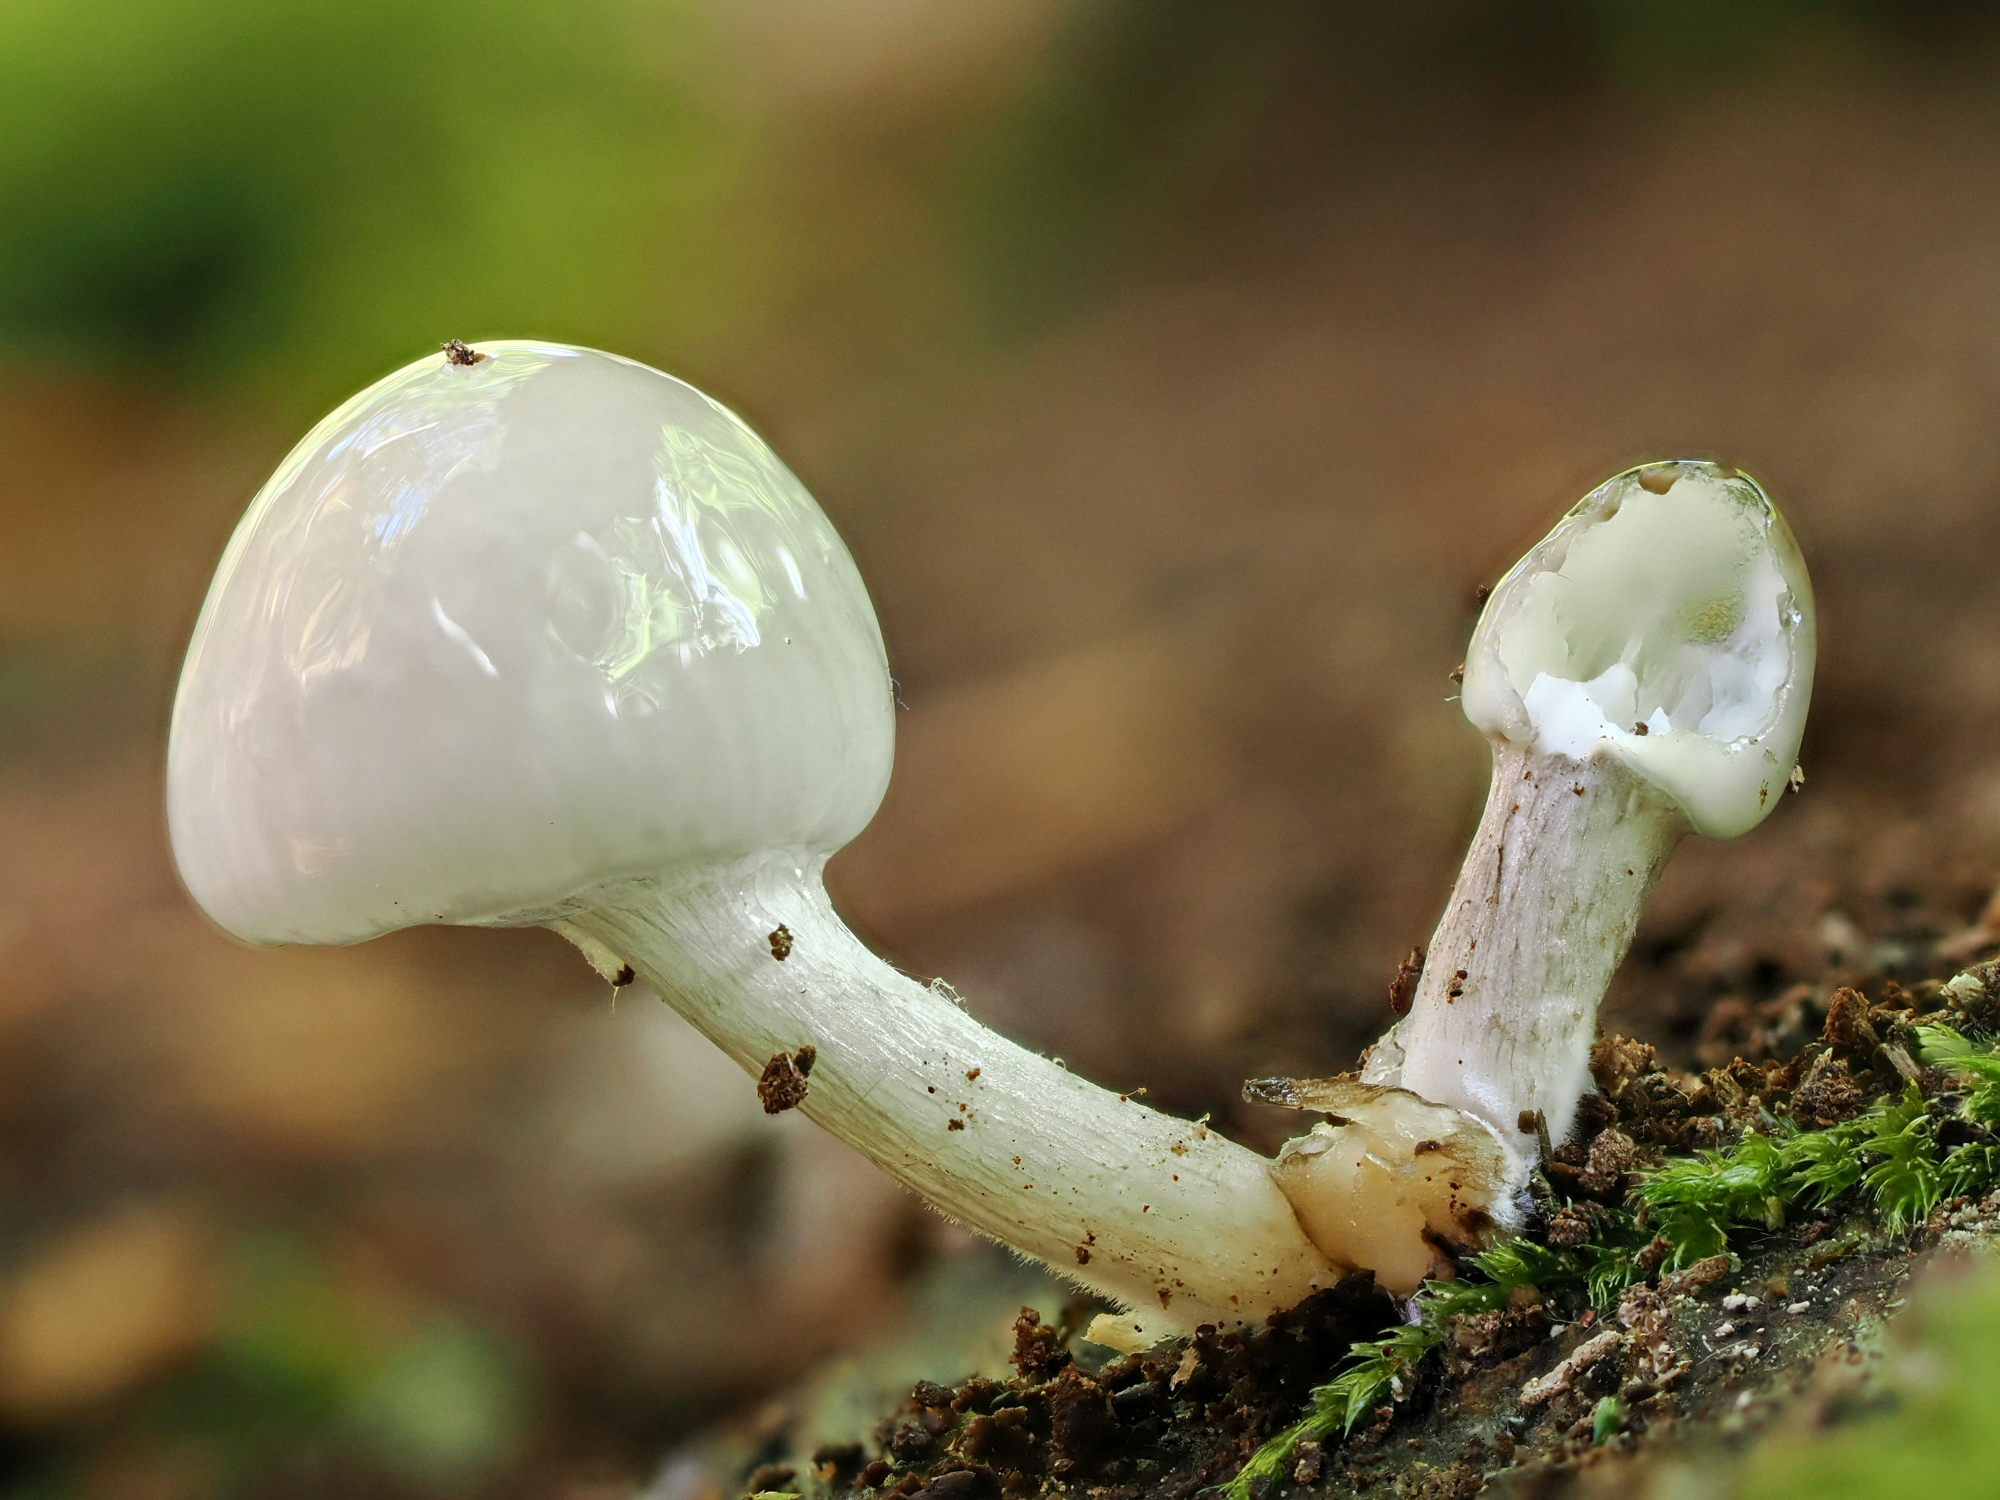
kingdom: Fungi
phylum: Basidiomycota
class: Agaricomycetes
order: Agaricales
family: Physalacriaceae
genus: Mucidula
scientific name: Mucidula mucida
